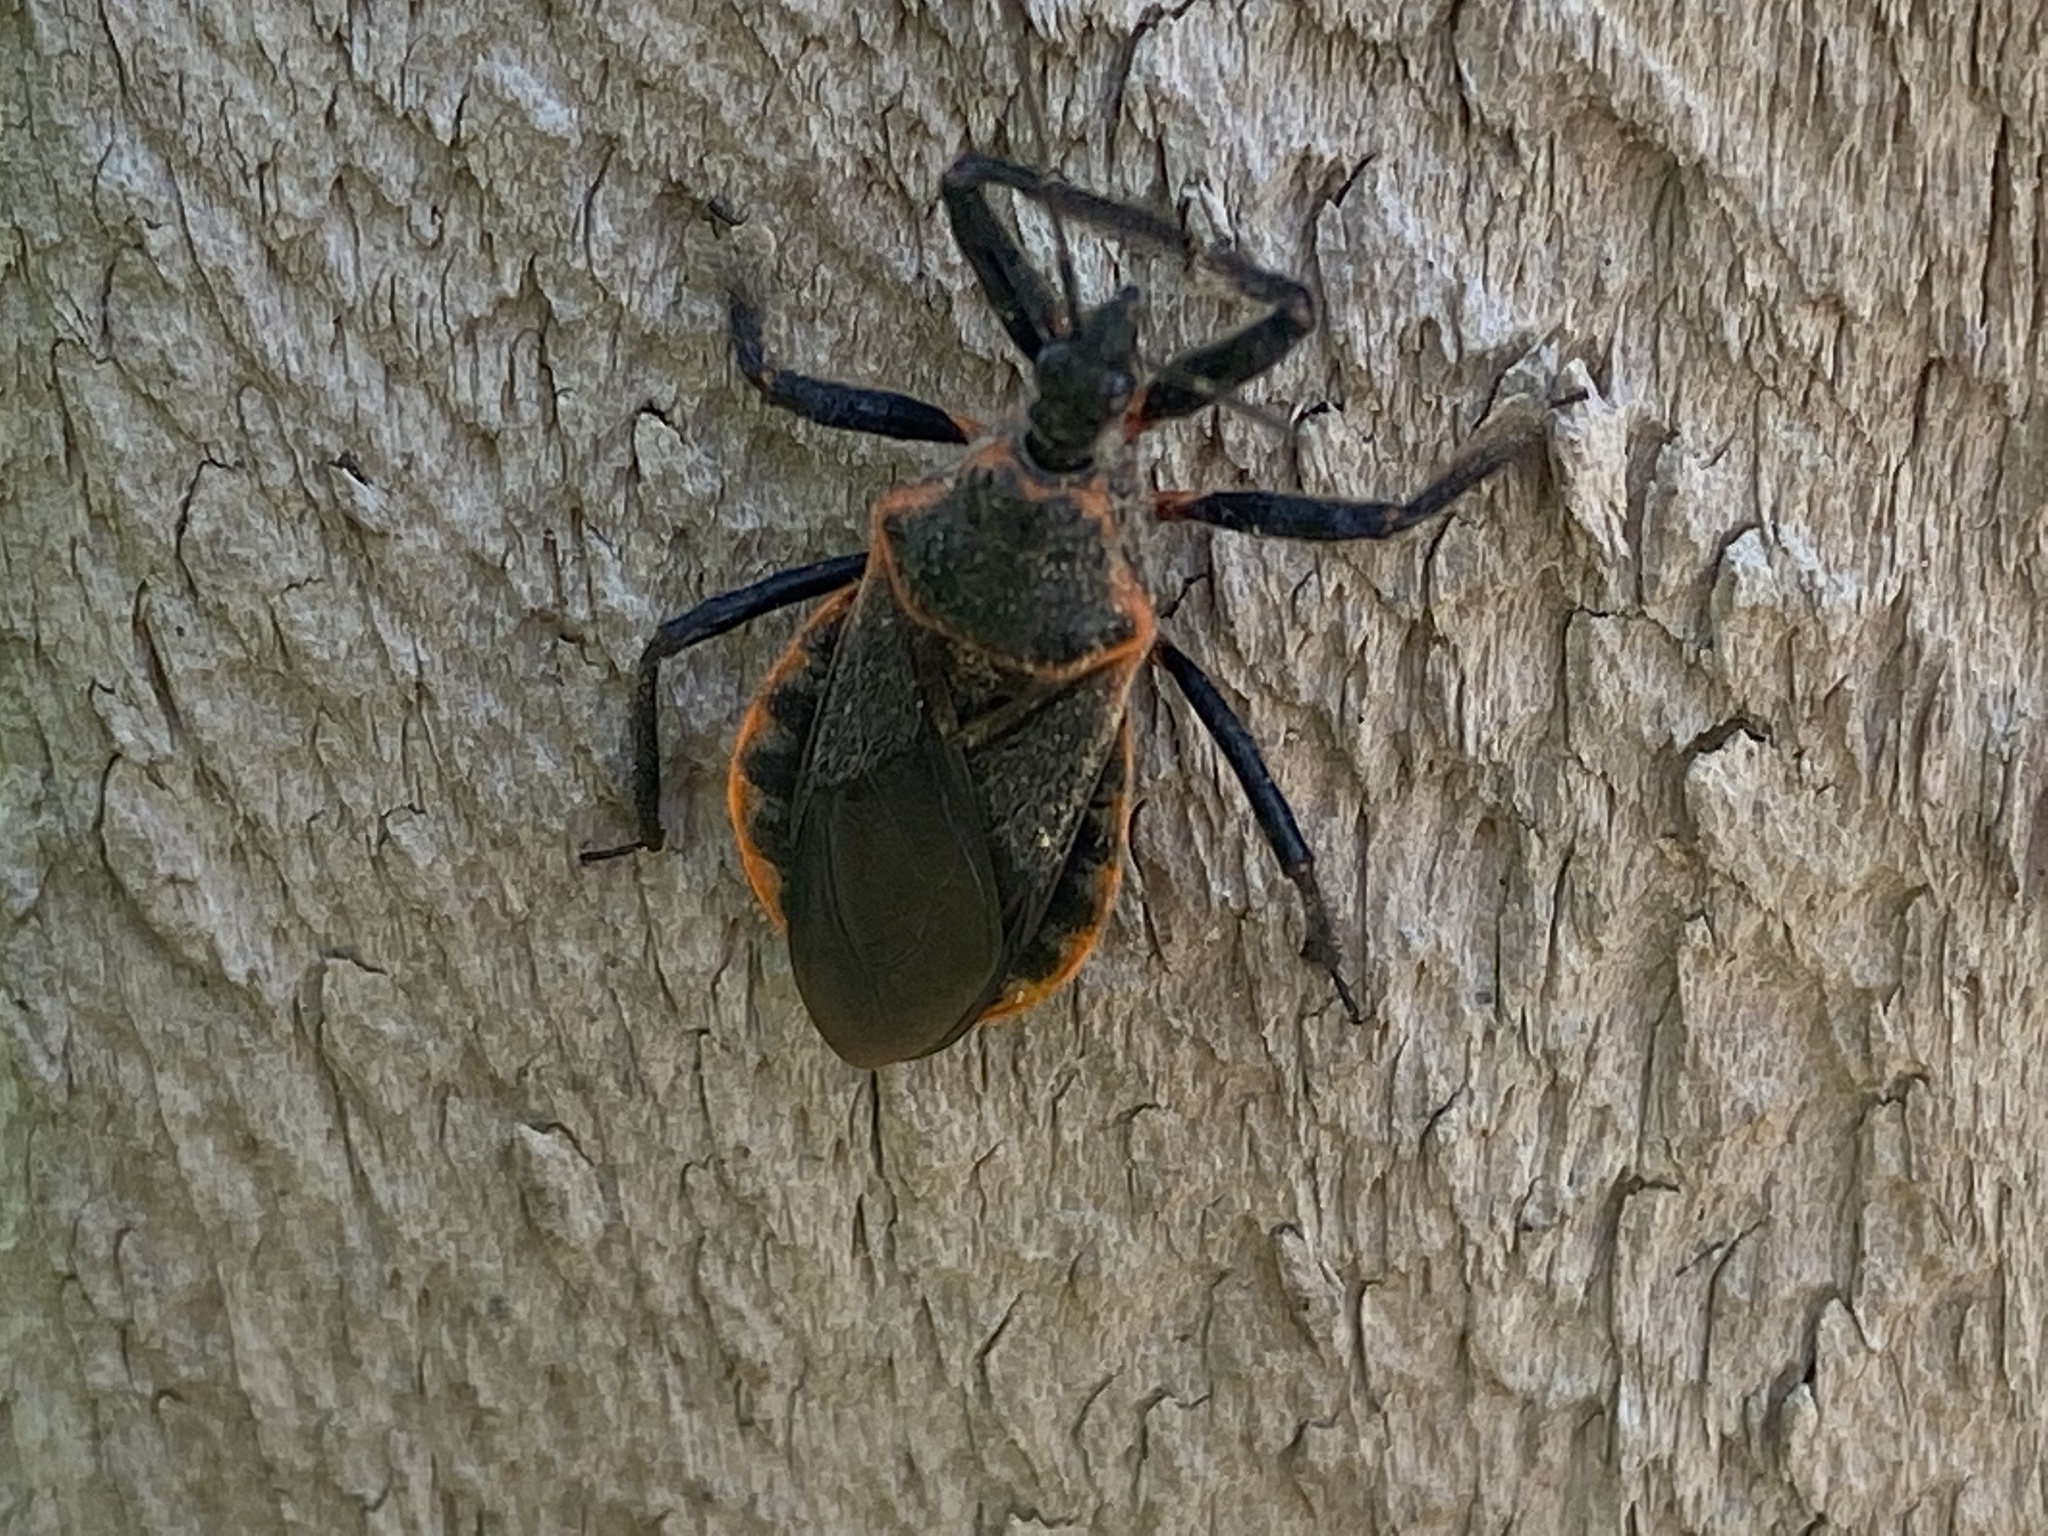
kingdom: Animalia
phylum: Arthropoda
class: Insecta
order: Hemiptera
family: Reduviidae
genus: Apiomerus
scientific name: Apiomerus crassipes
